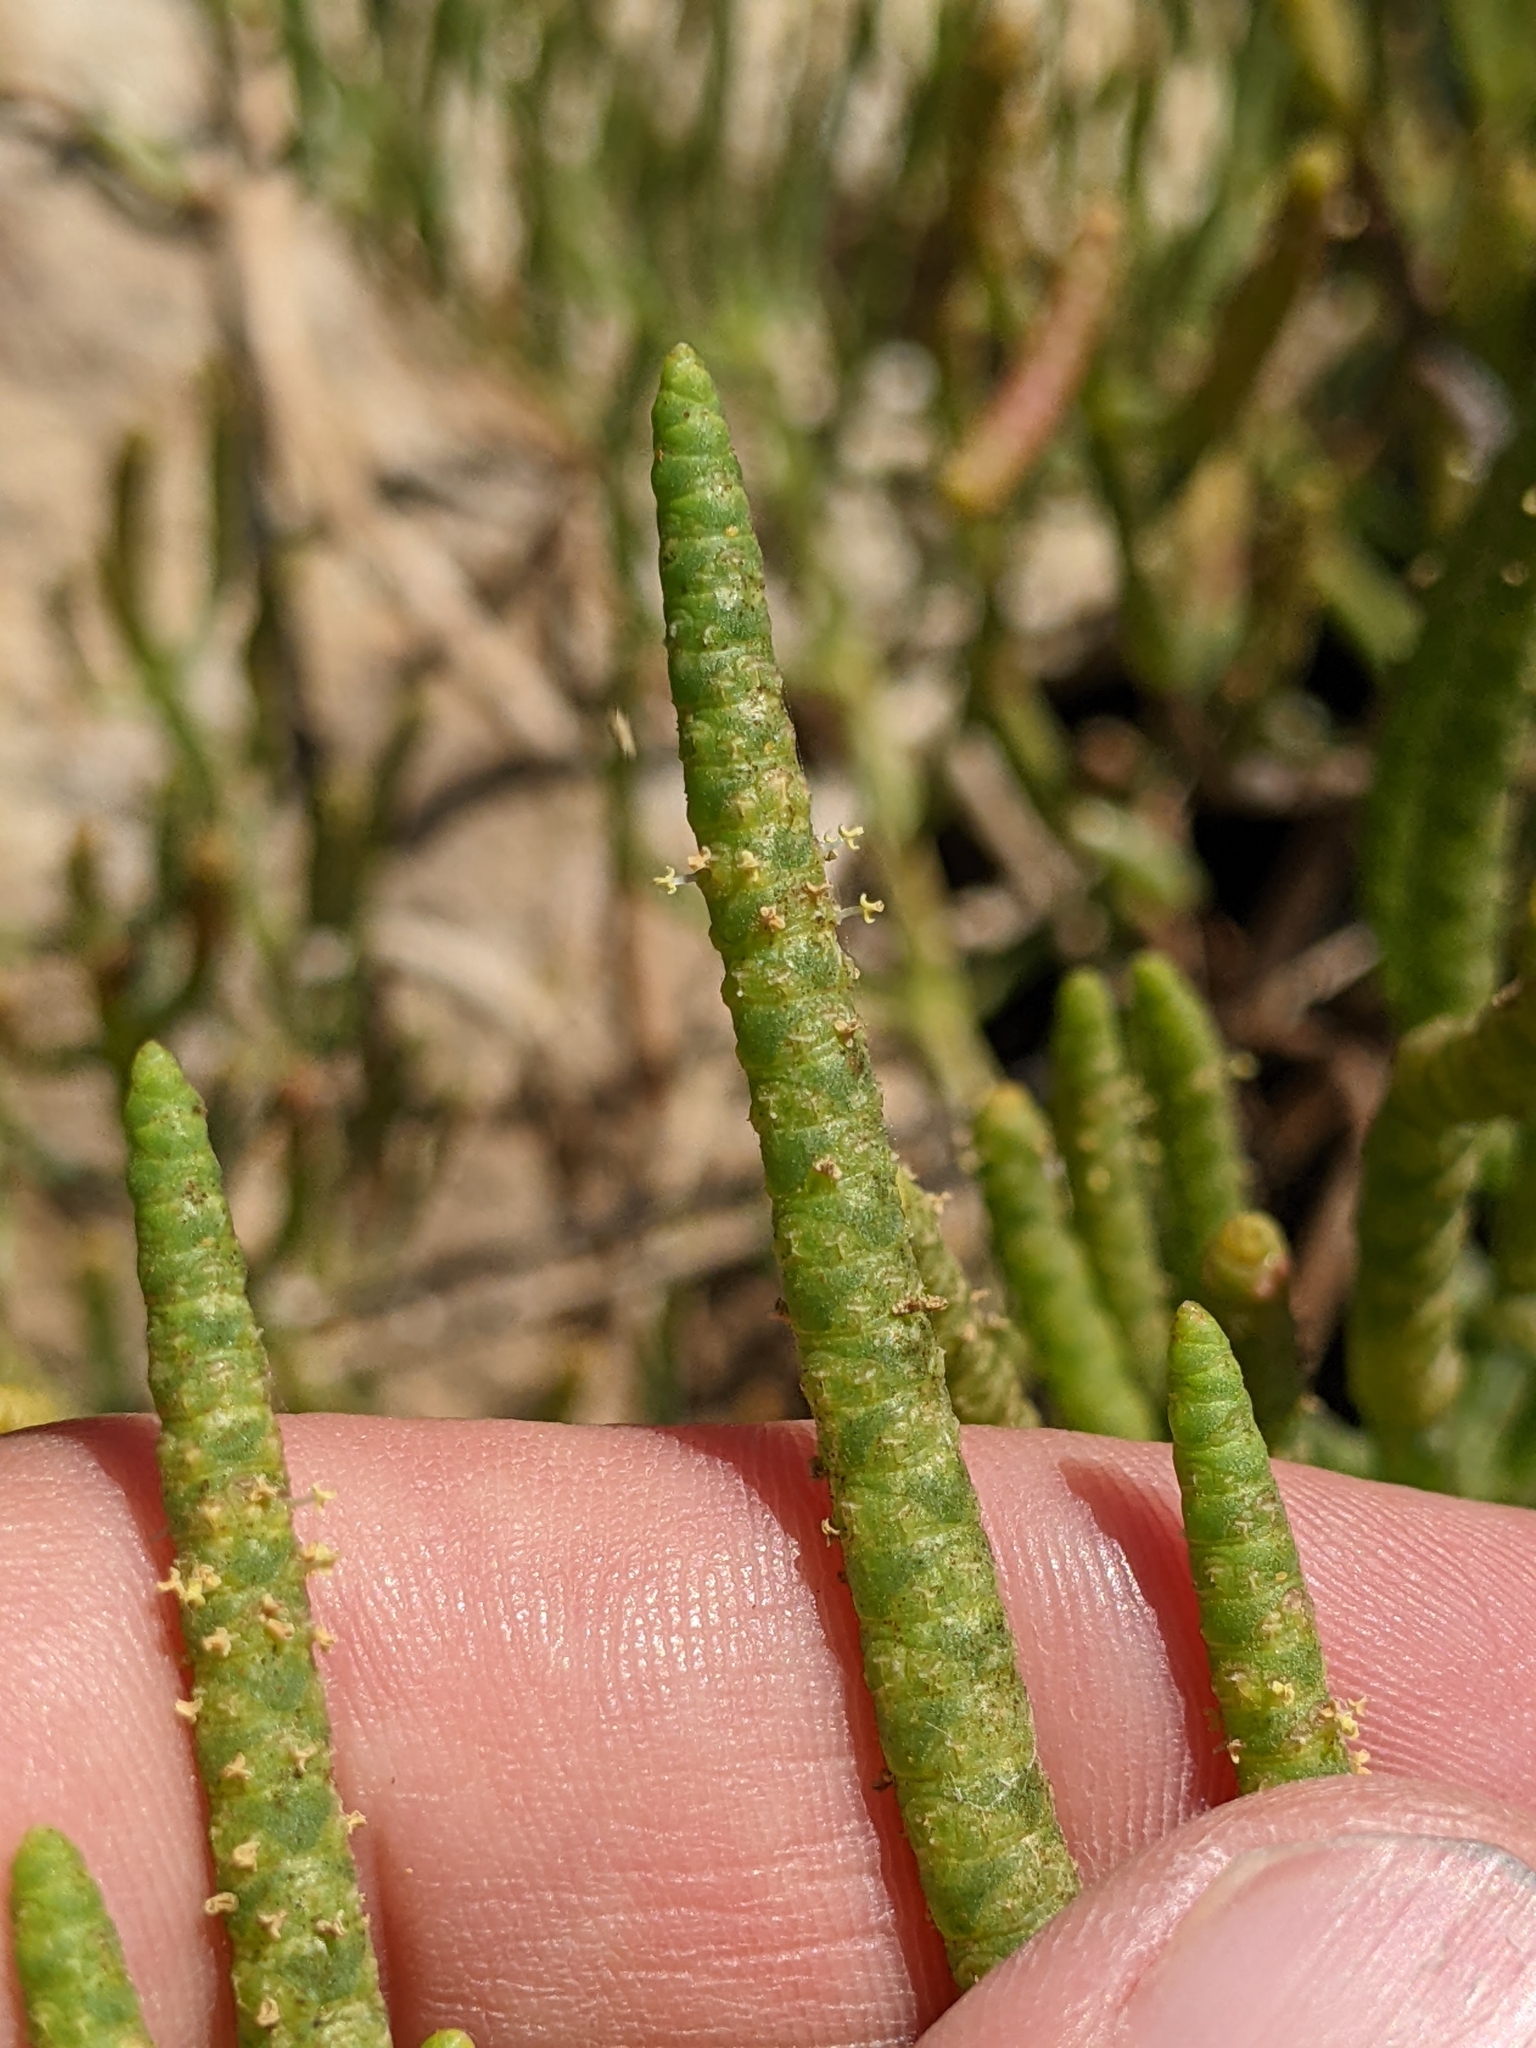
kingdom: Plantae
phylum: Tracheophyta
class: Magnoliopsida
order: Caryophyllales
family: Amaranthaceae
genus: Salicornia
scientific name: Salicornia pacifica
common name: Pacific glasswort
